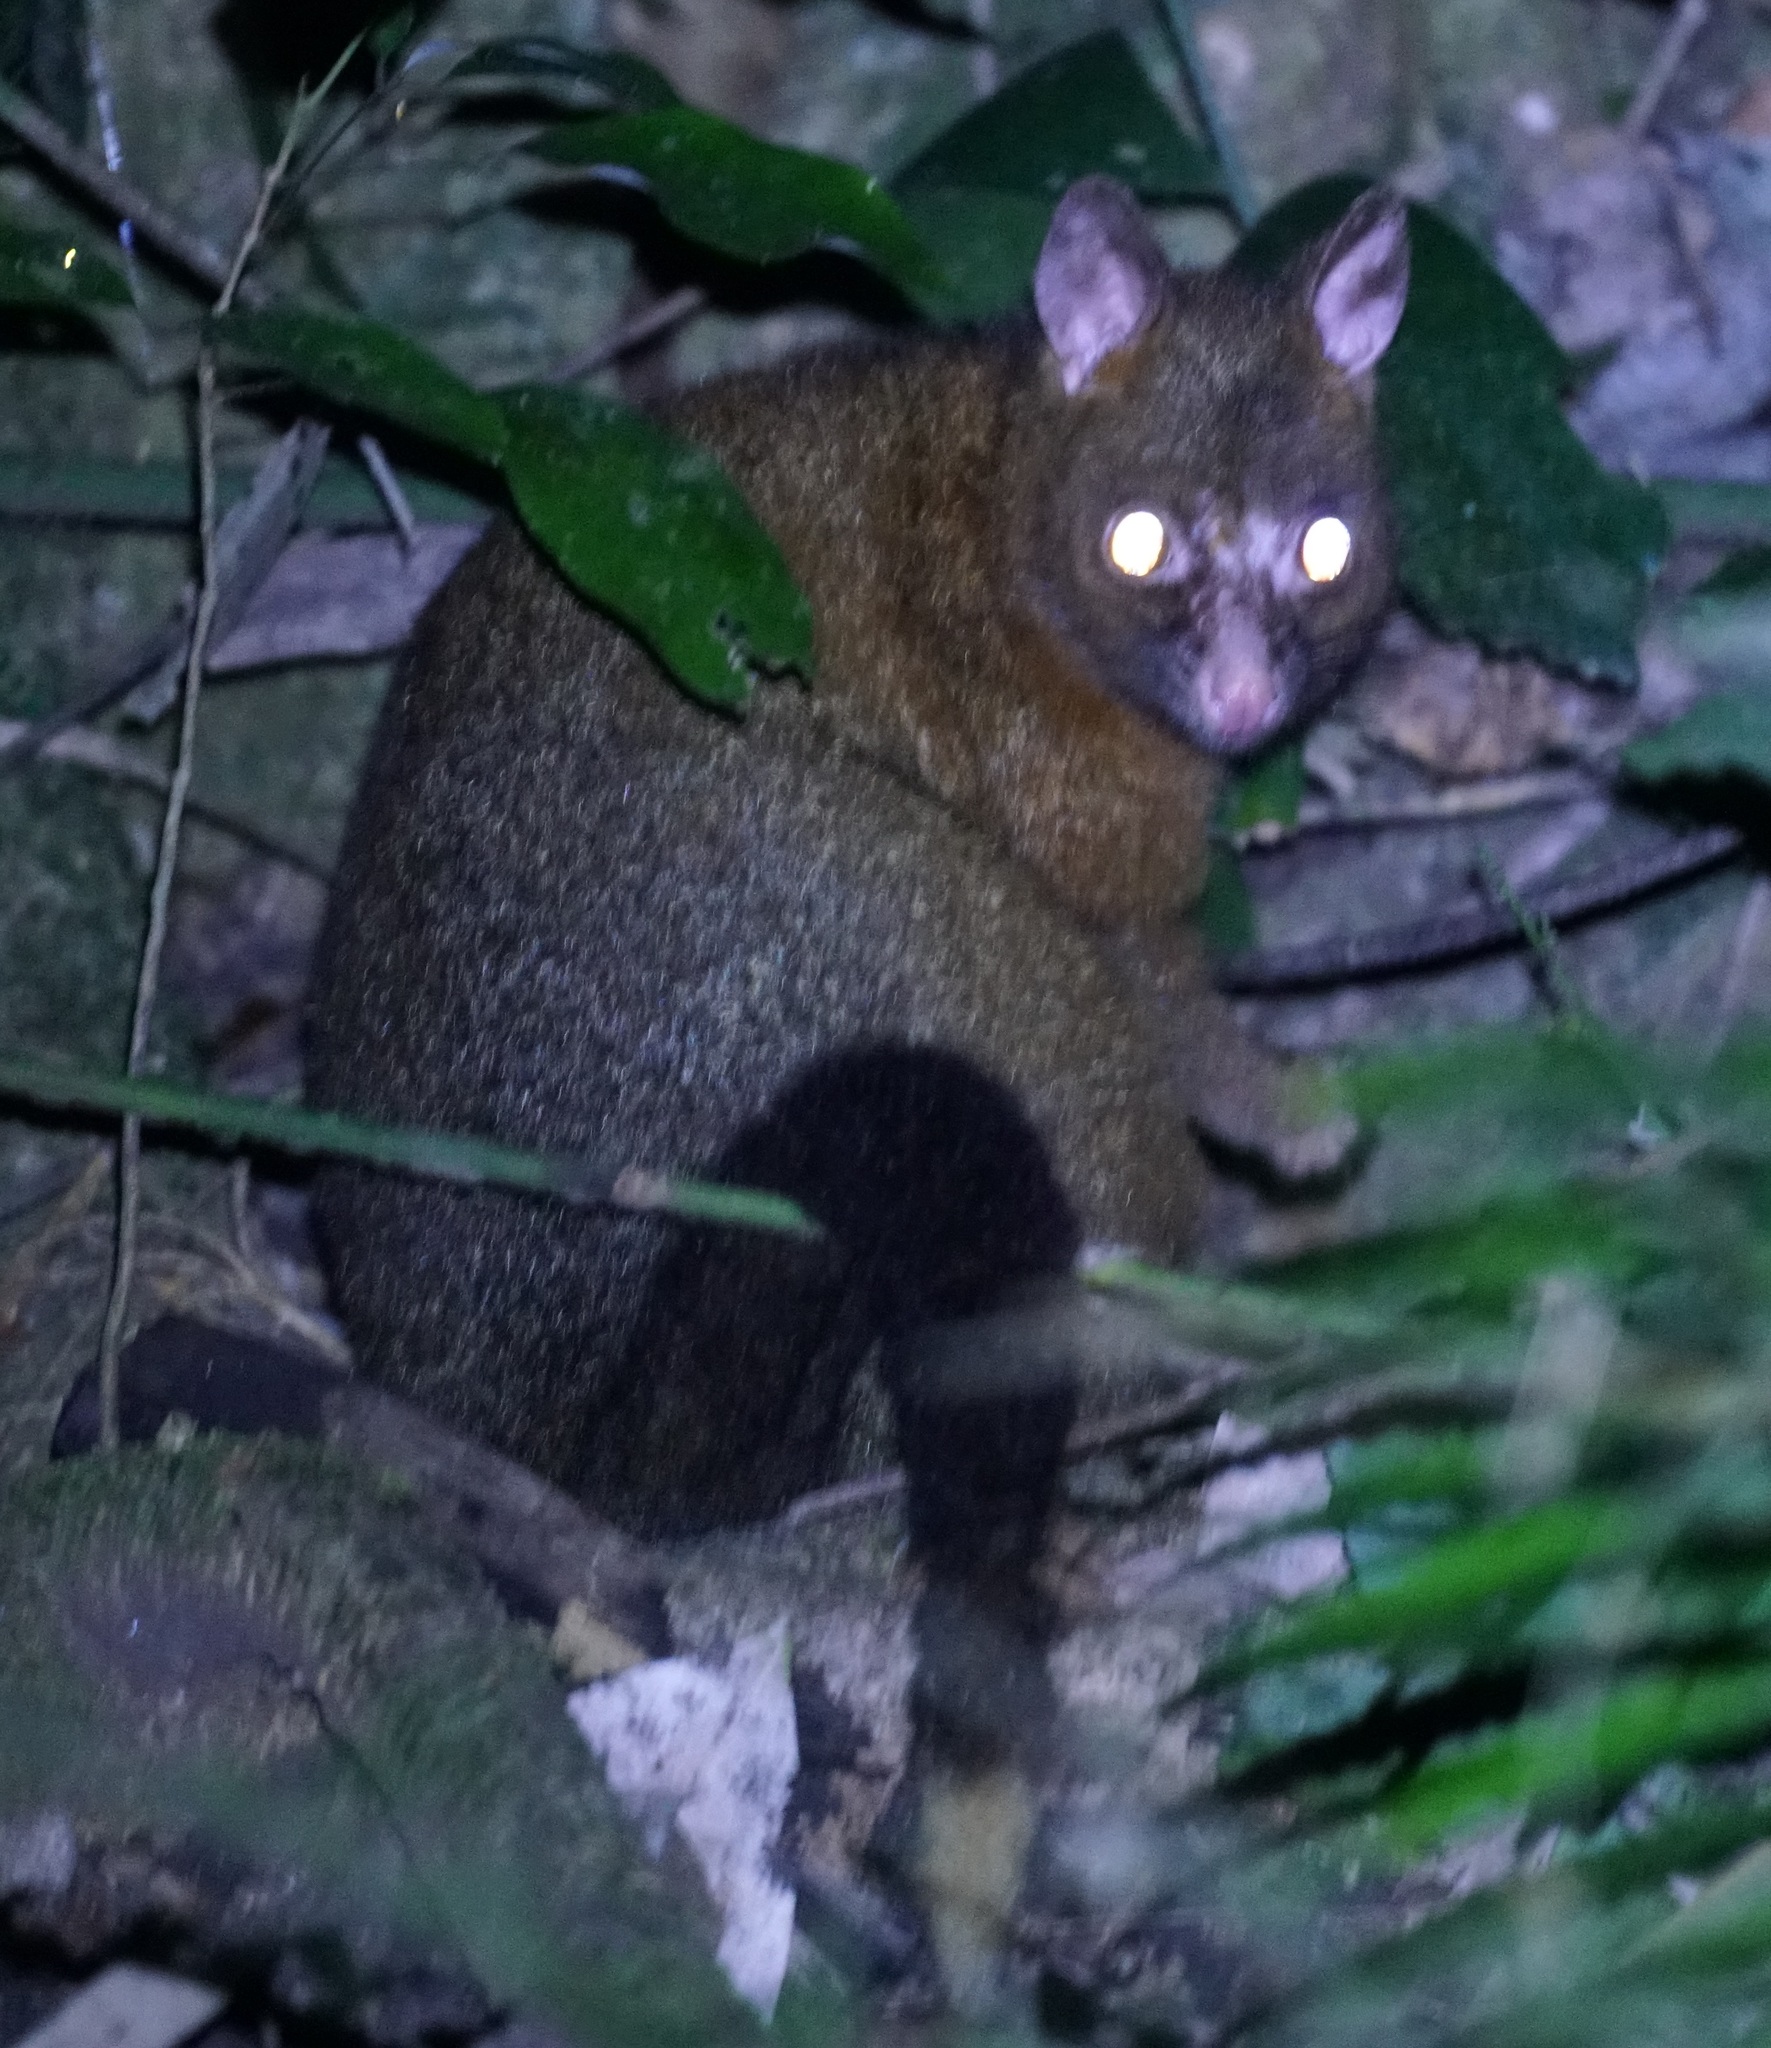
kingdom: Animalia
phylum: Chordata
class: Mammalia
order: Diprotodontia
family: Phalangeridae
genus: Trichosurus
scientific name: Trichosurus vulpecula
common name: Common brushtail
